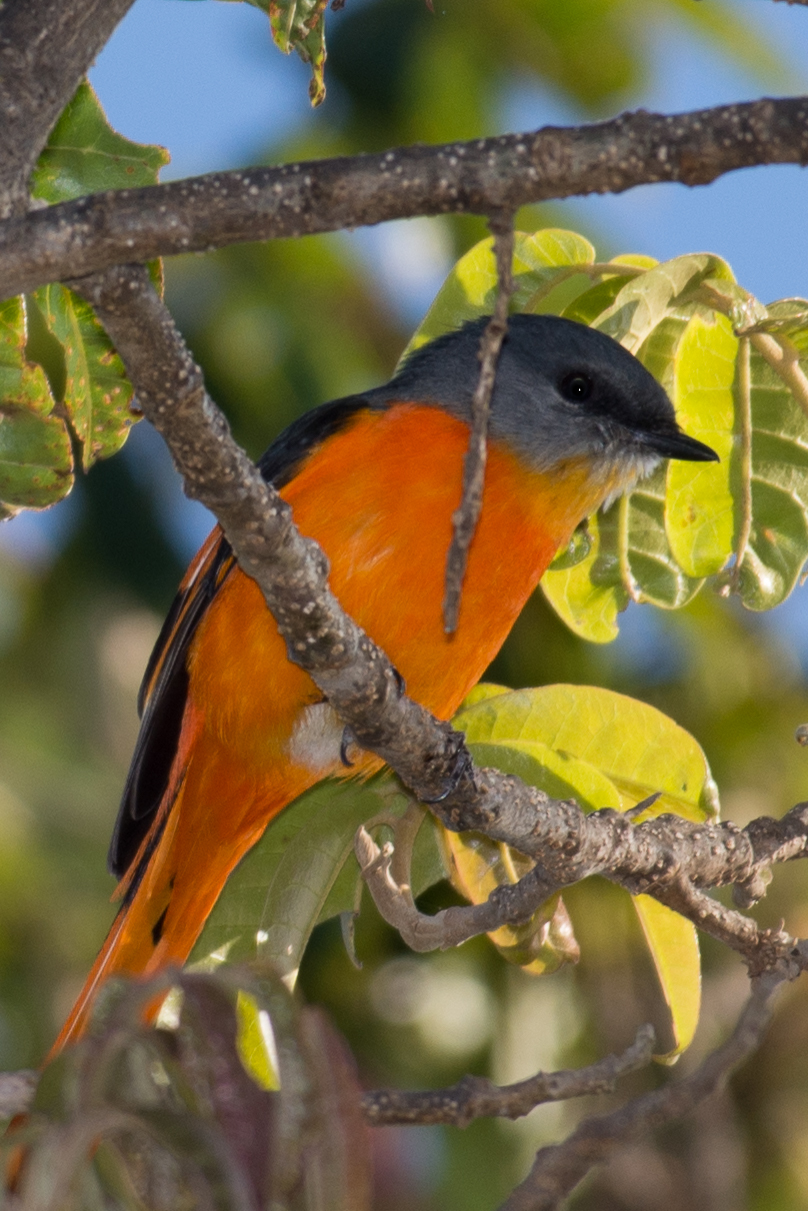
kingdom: Animalia
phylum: Chordata
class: Aves
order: Passeriformes
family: Campephagidae
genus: Pericrocotus
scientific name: Pericrocotus solaris
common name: Grey-chinned minivet
